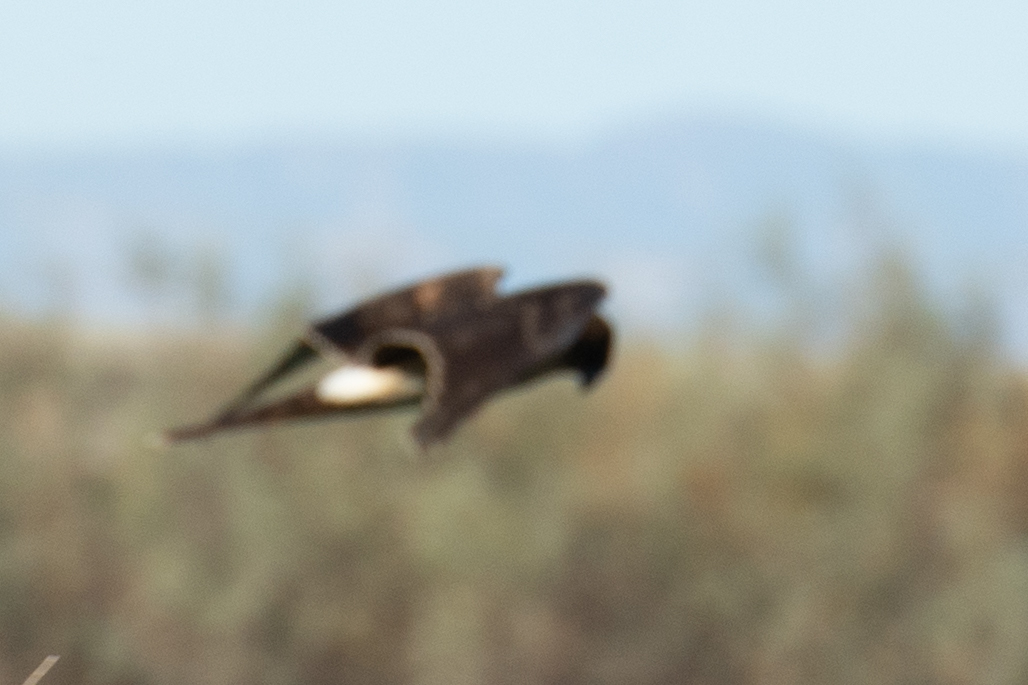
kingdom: Animalia
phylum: Chordata
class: Aves
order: Accipitriformes
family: Accipitridae
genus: Circus
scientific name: Circus cyaneus
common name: Hen harrier
